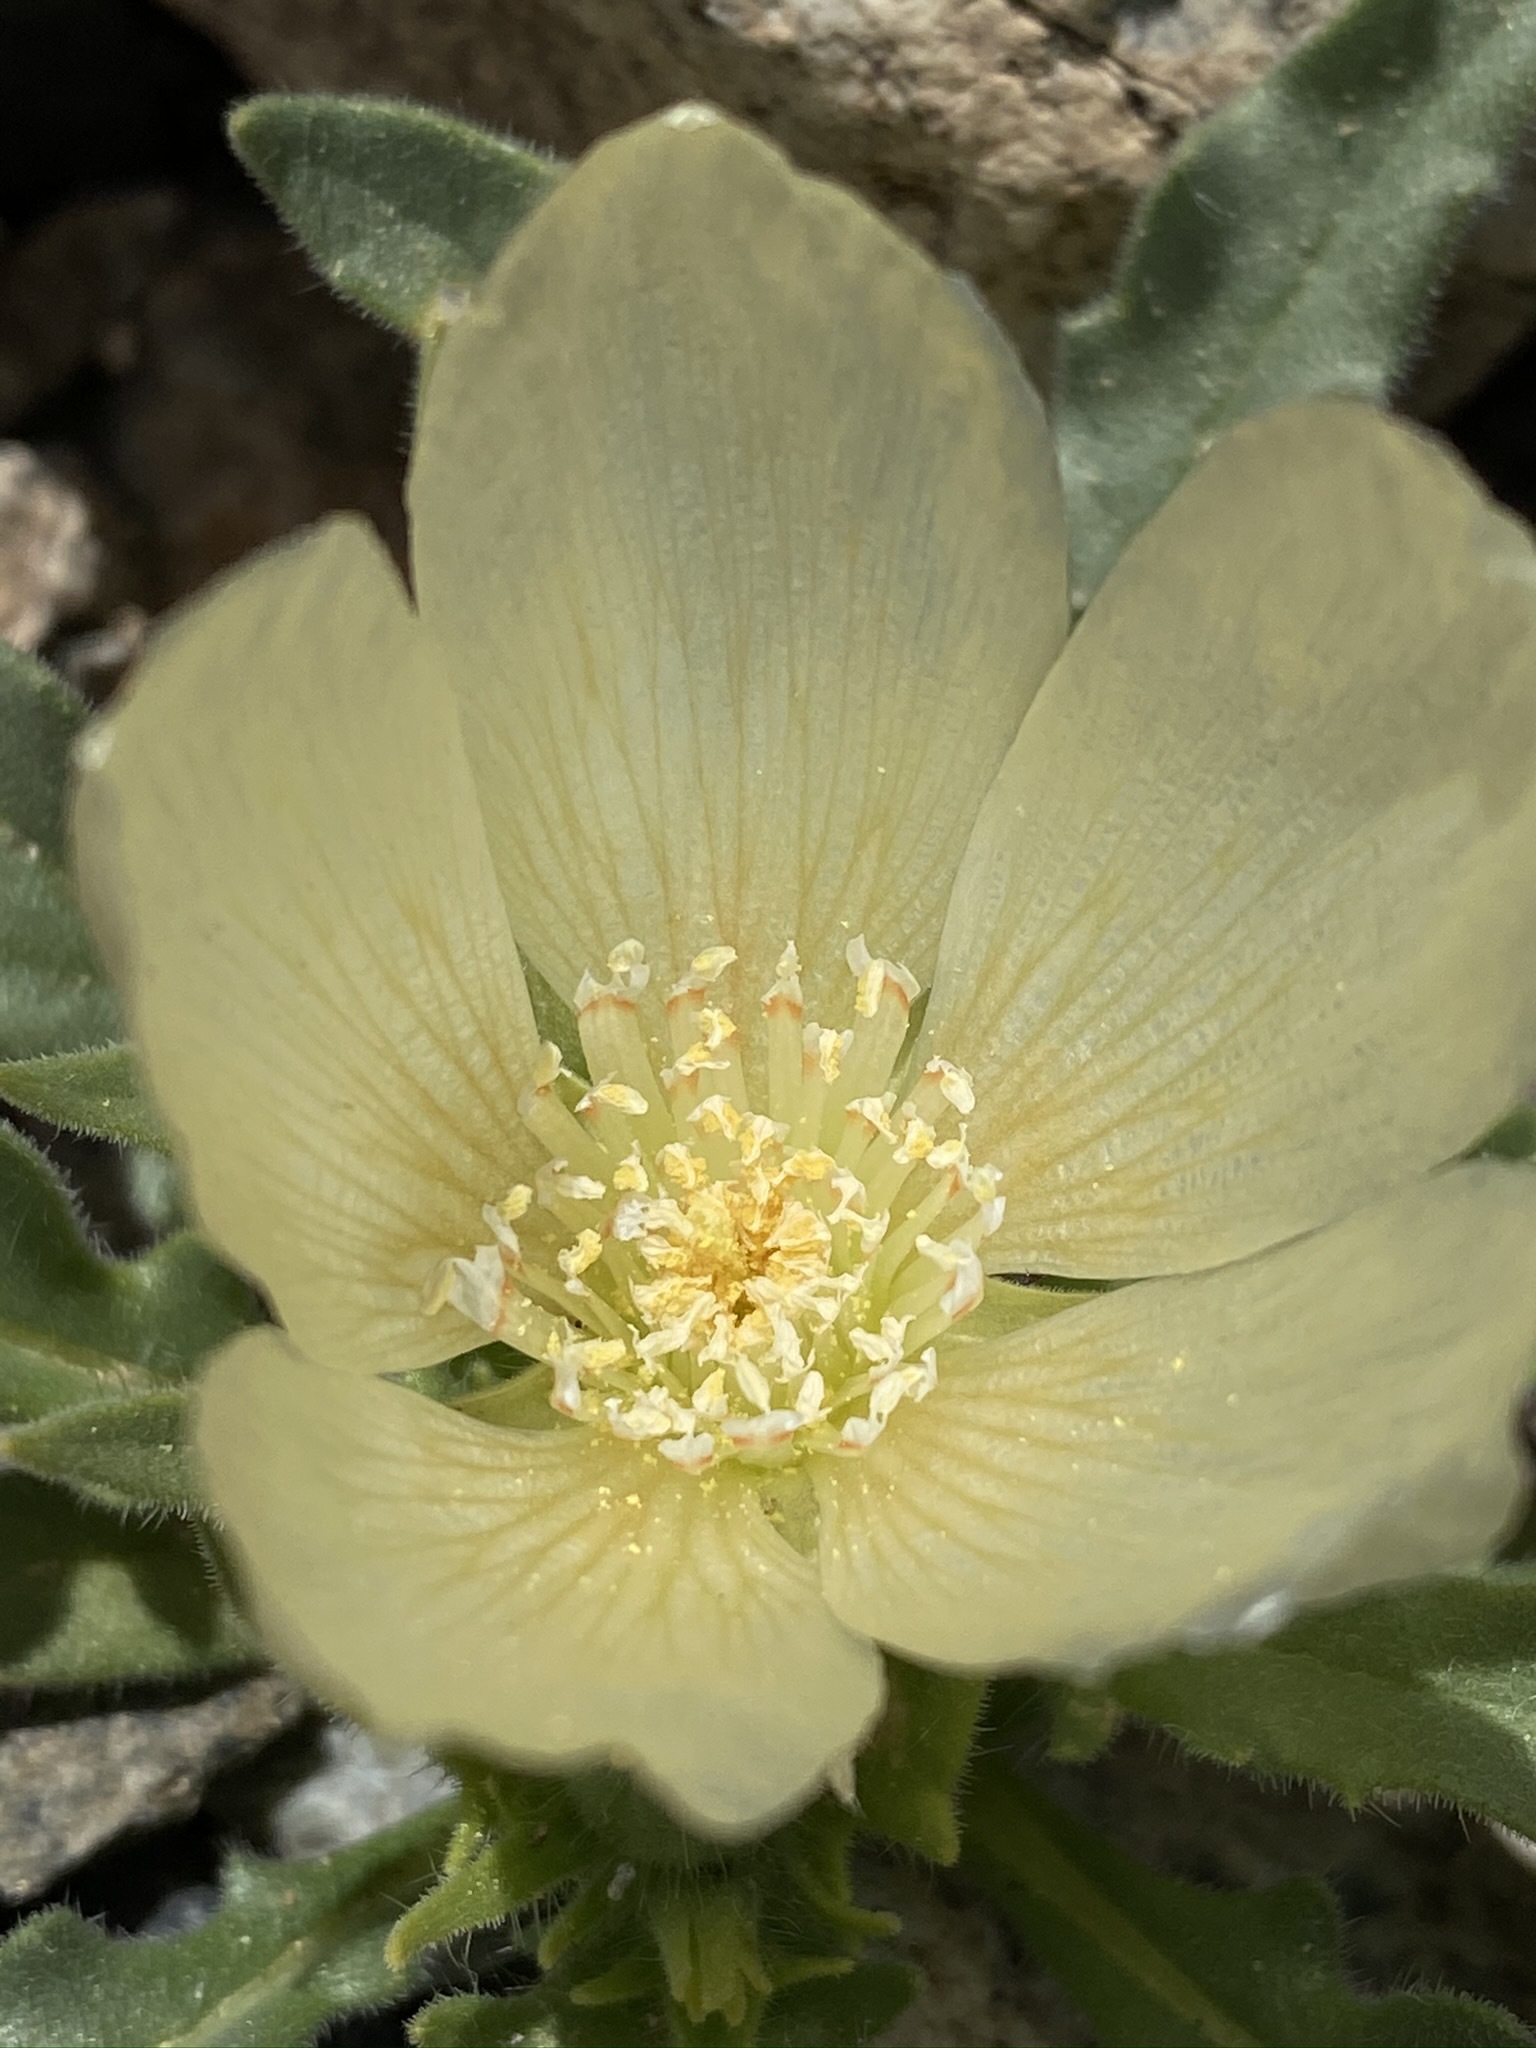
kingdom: Plantae
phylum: Tracheophyta
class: Magnoliopsida
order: Cornales
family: Loasaceae
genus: Mentzelia
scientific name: Mentzelia tridentata
